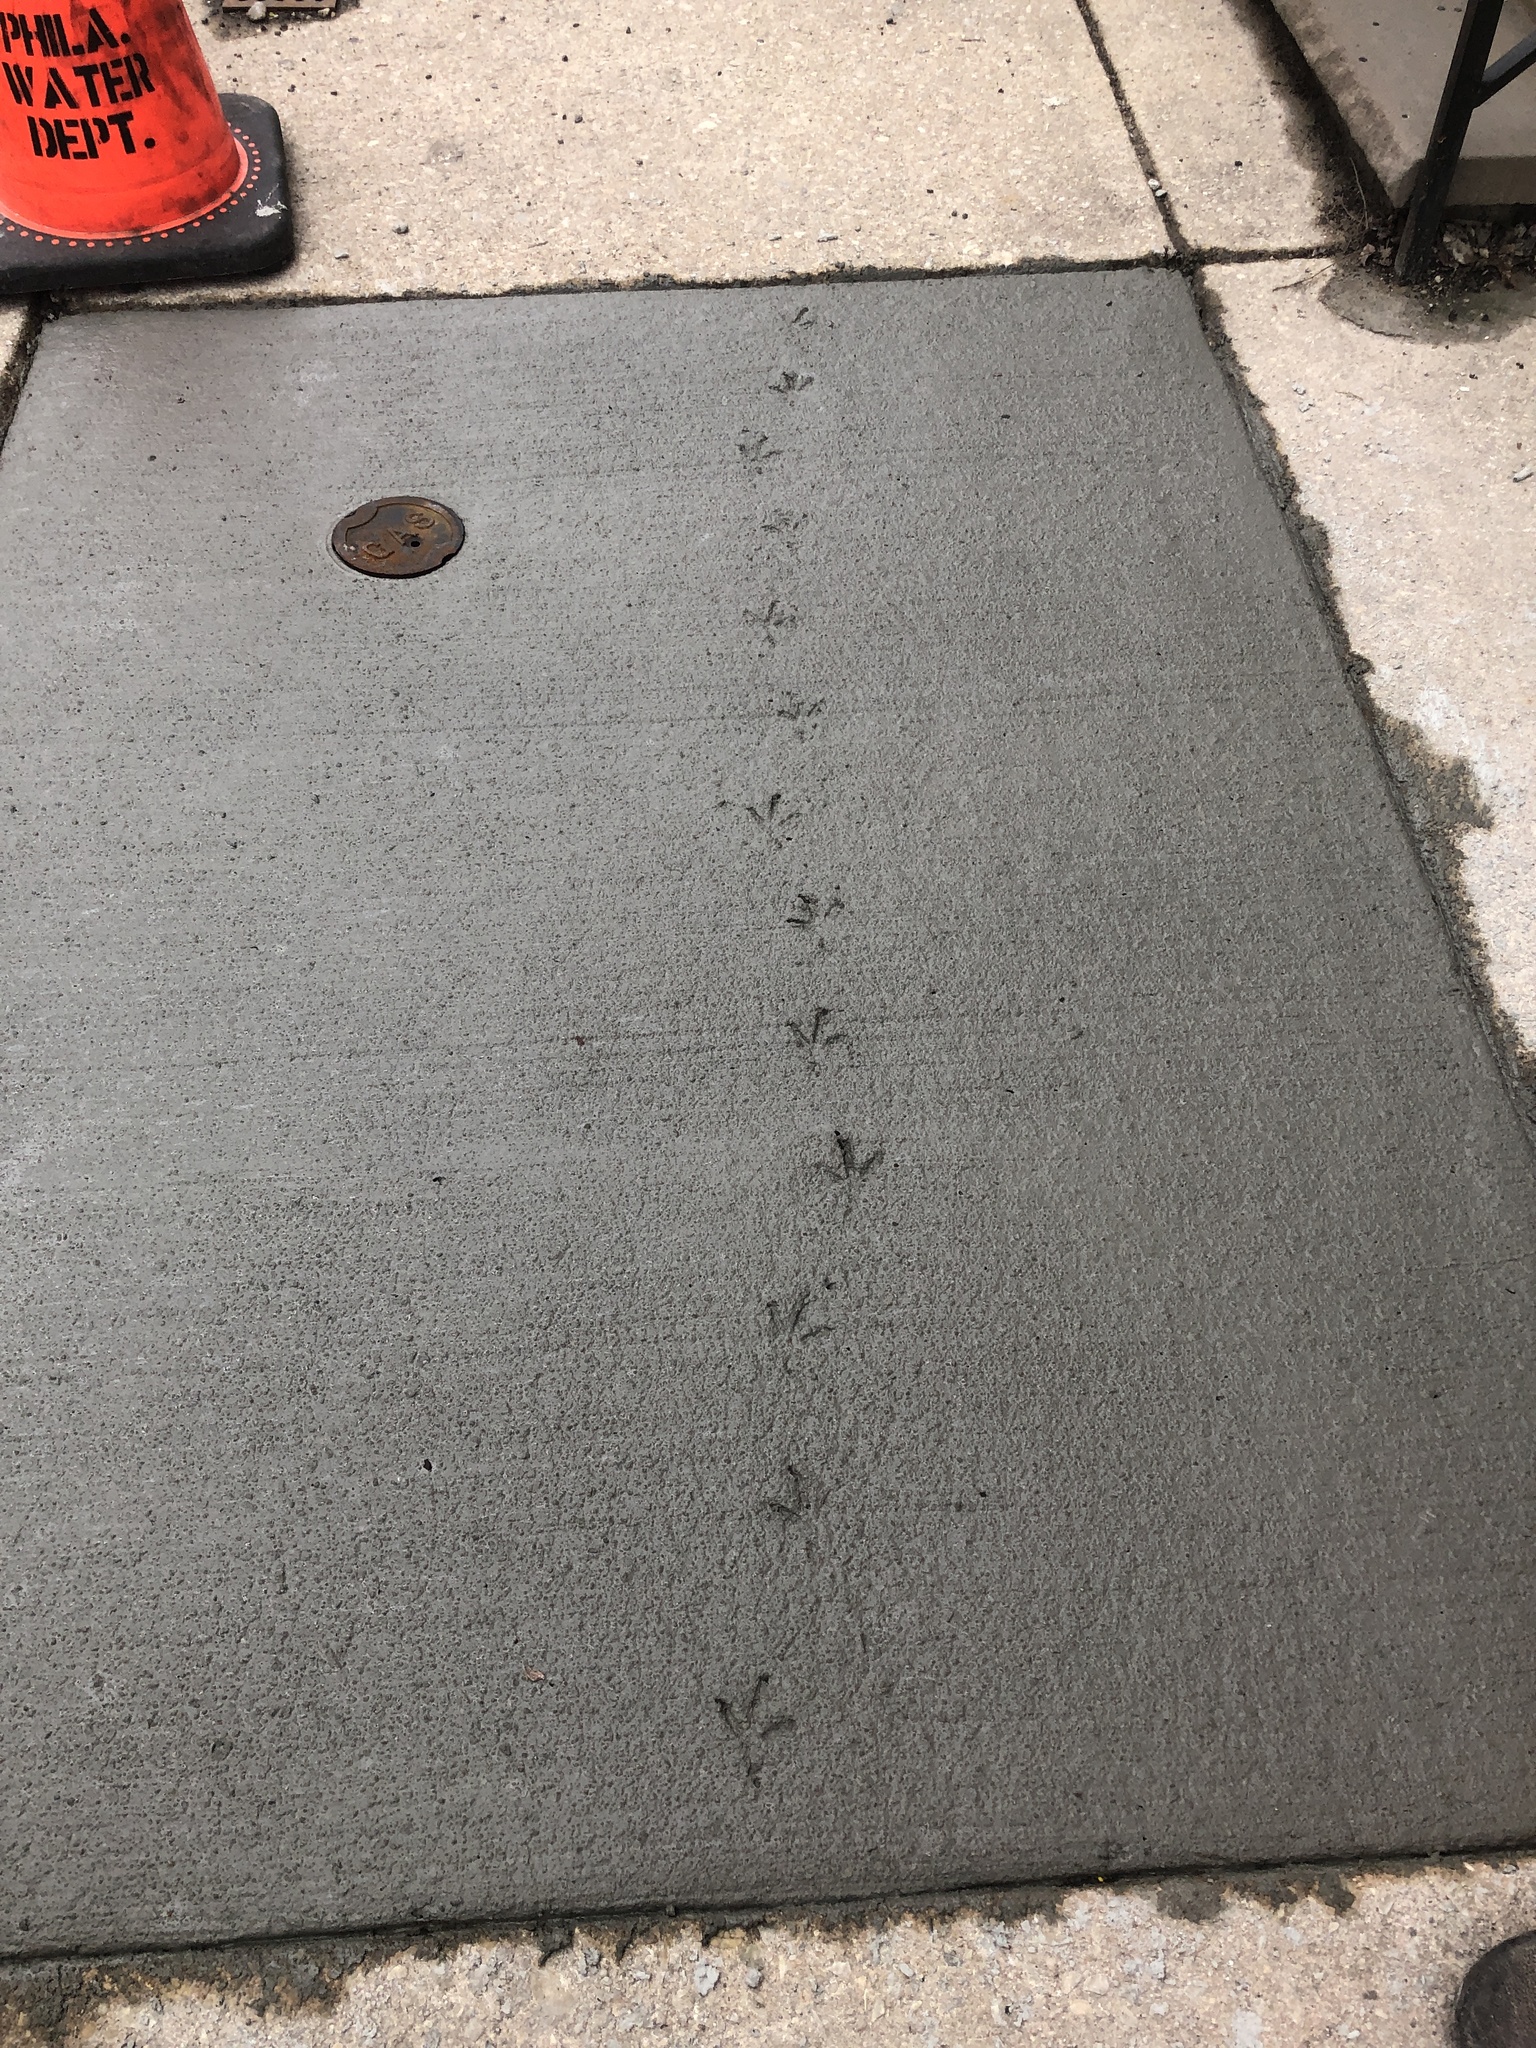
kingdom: Animalia
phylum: Chordata
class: Aves
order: Columbiformes
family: Columbidae
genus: Columba
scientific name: Columba livia
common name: Rock pigeon
